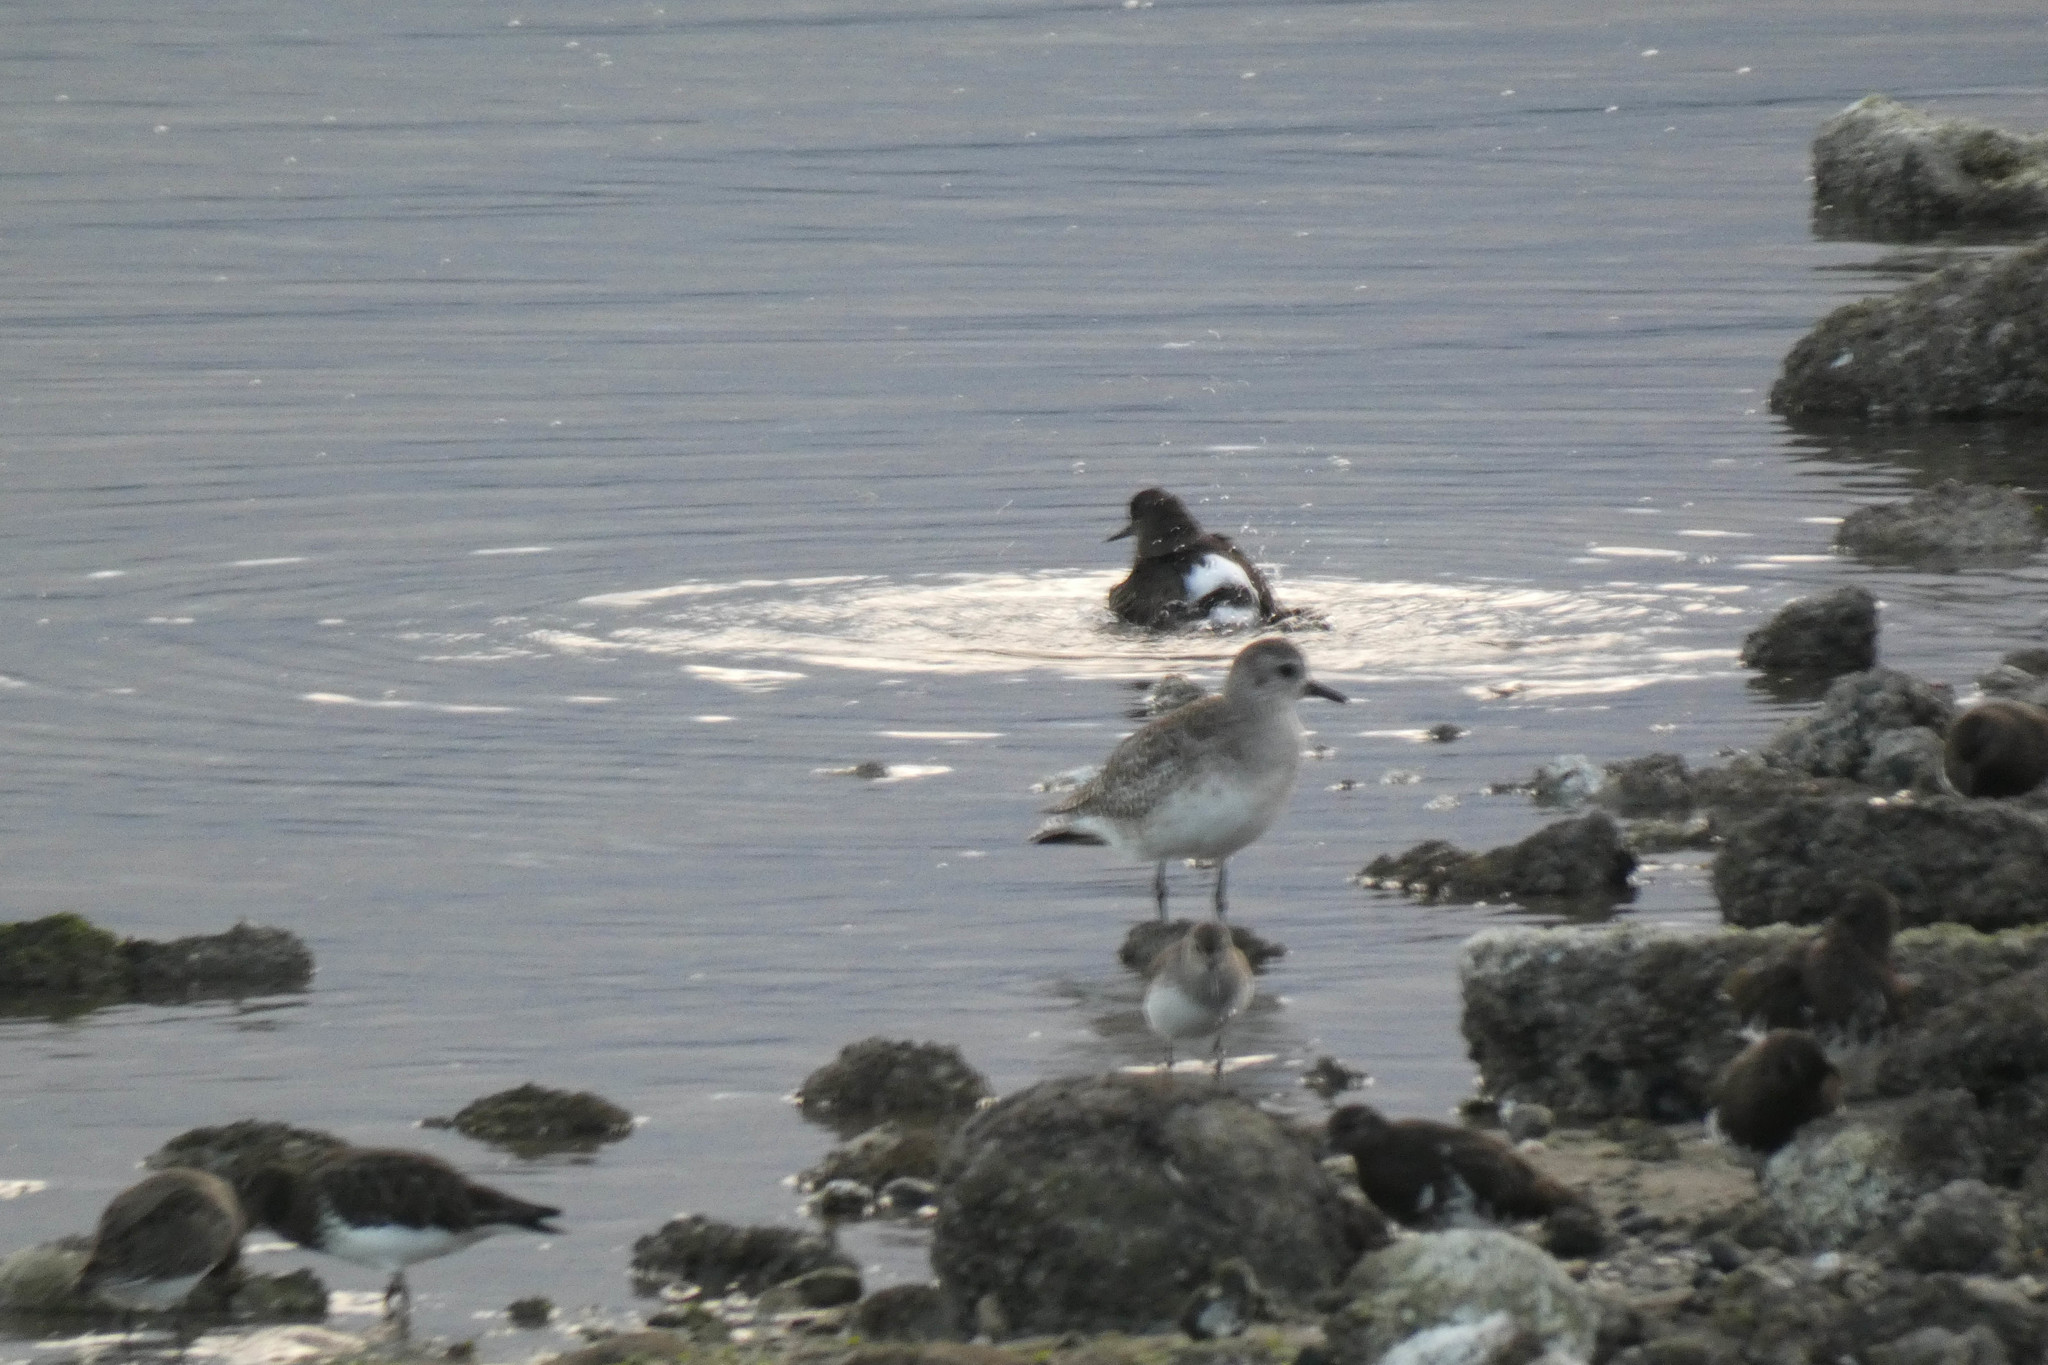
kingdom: Animalia
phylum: Chordata
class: Aves
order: Charadriiformes
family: Scolopacidae
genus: Arenaria
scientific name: Arenaria melanocephala
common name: Black turnstone
